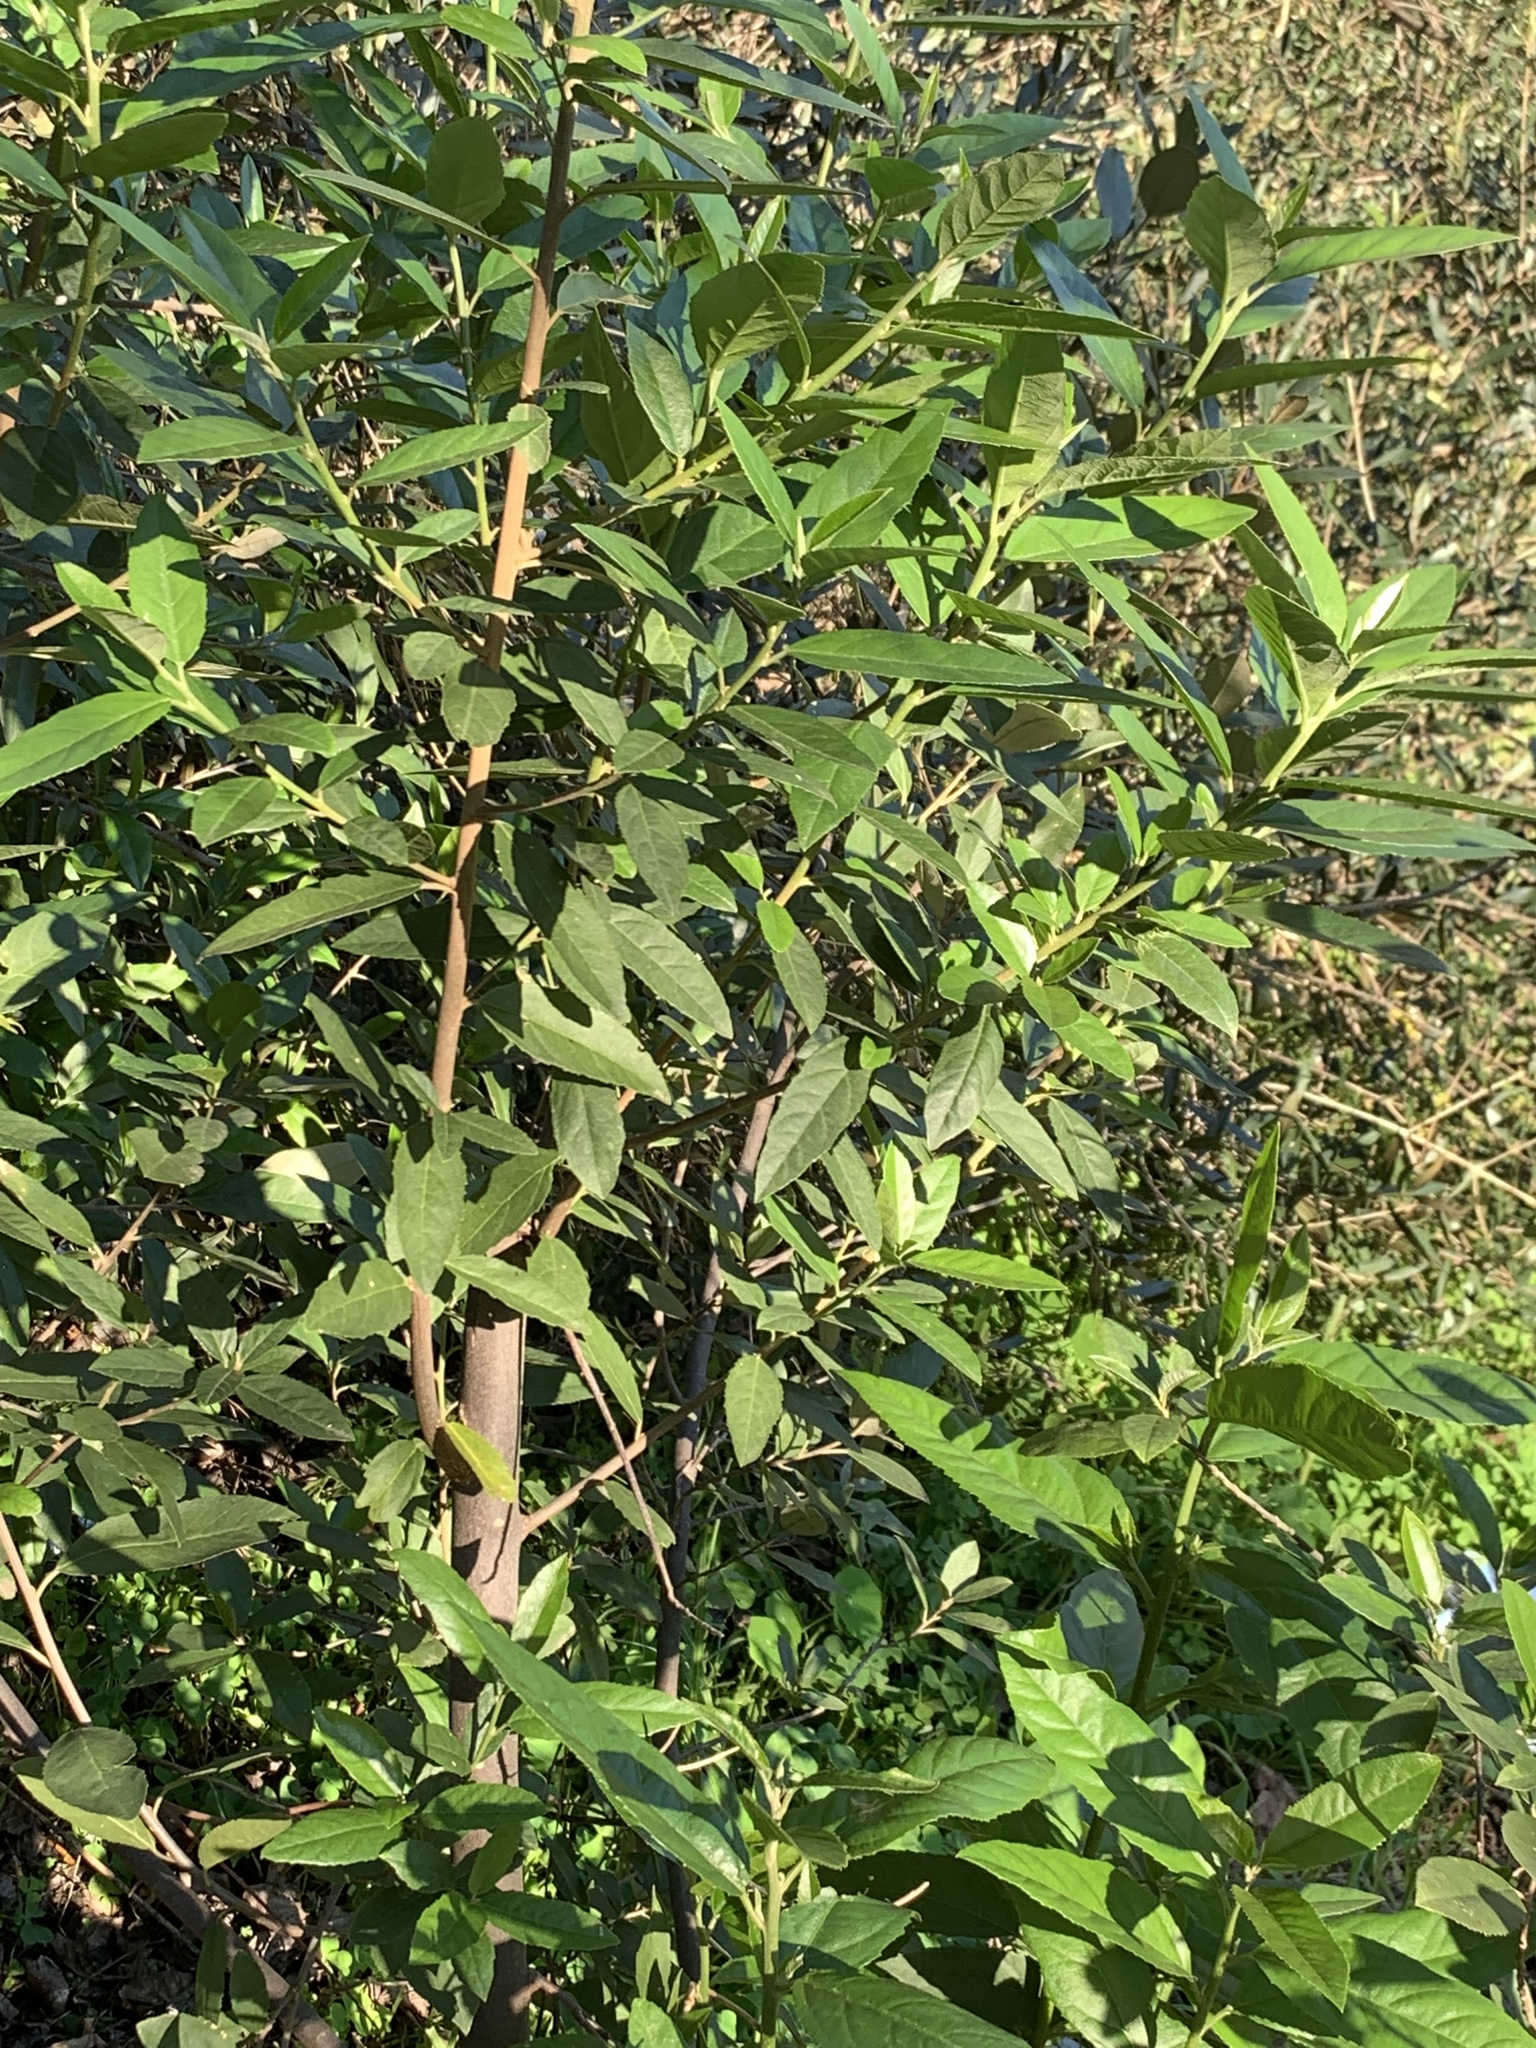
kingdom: Plantae
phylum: Tracheophyta
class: Magnoliopsida
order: Malpighiales
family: Achariaceae
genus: Kiggelaria
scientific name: Kiggelaria africana
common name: Wild peach
